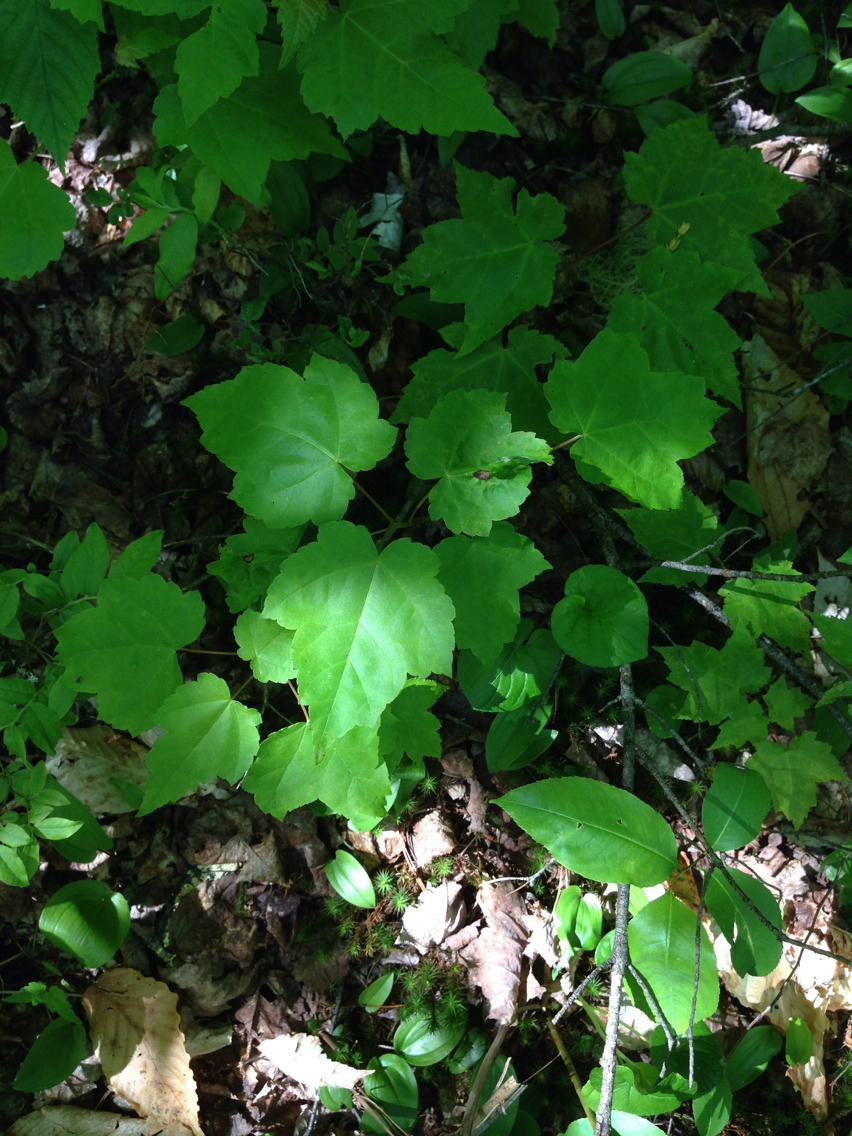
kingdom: Plantae
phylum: Tracheophyta
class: Magnoliopsida
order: Sapindales
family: Sapindaceae
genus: Acer
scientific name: Acer rubrum
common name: Red maple
